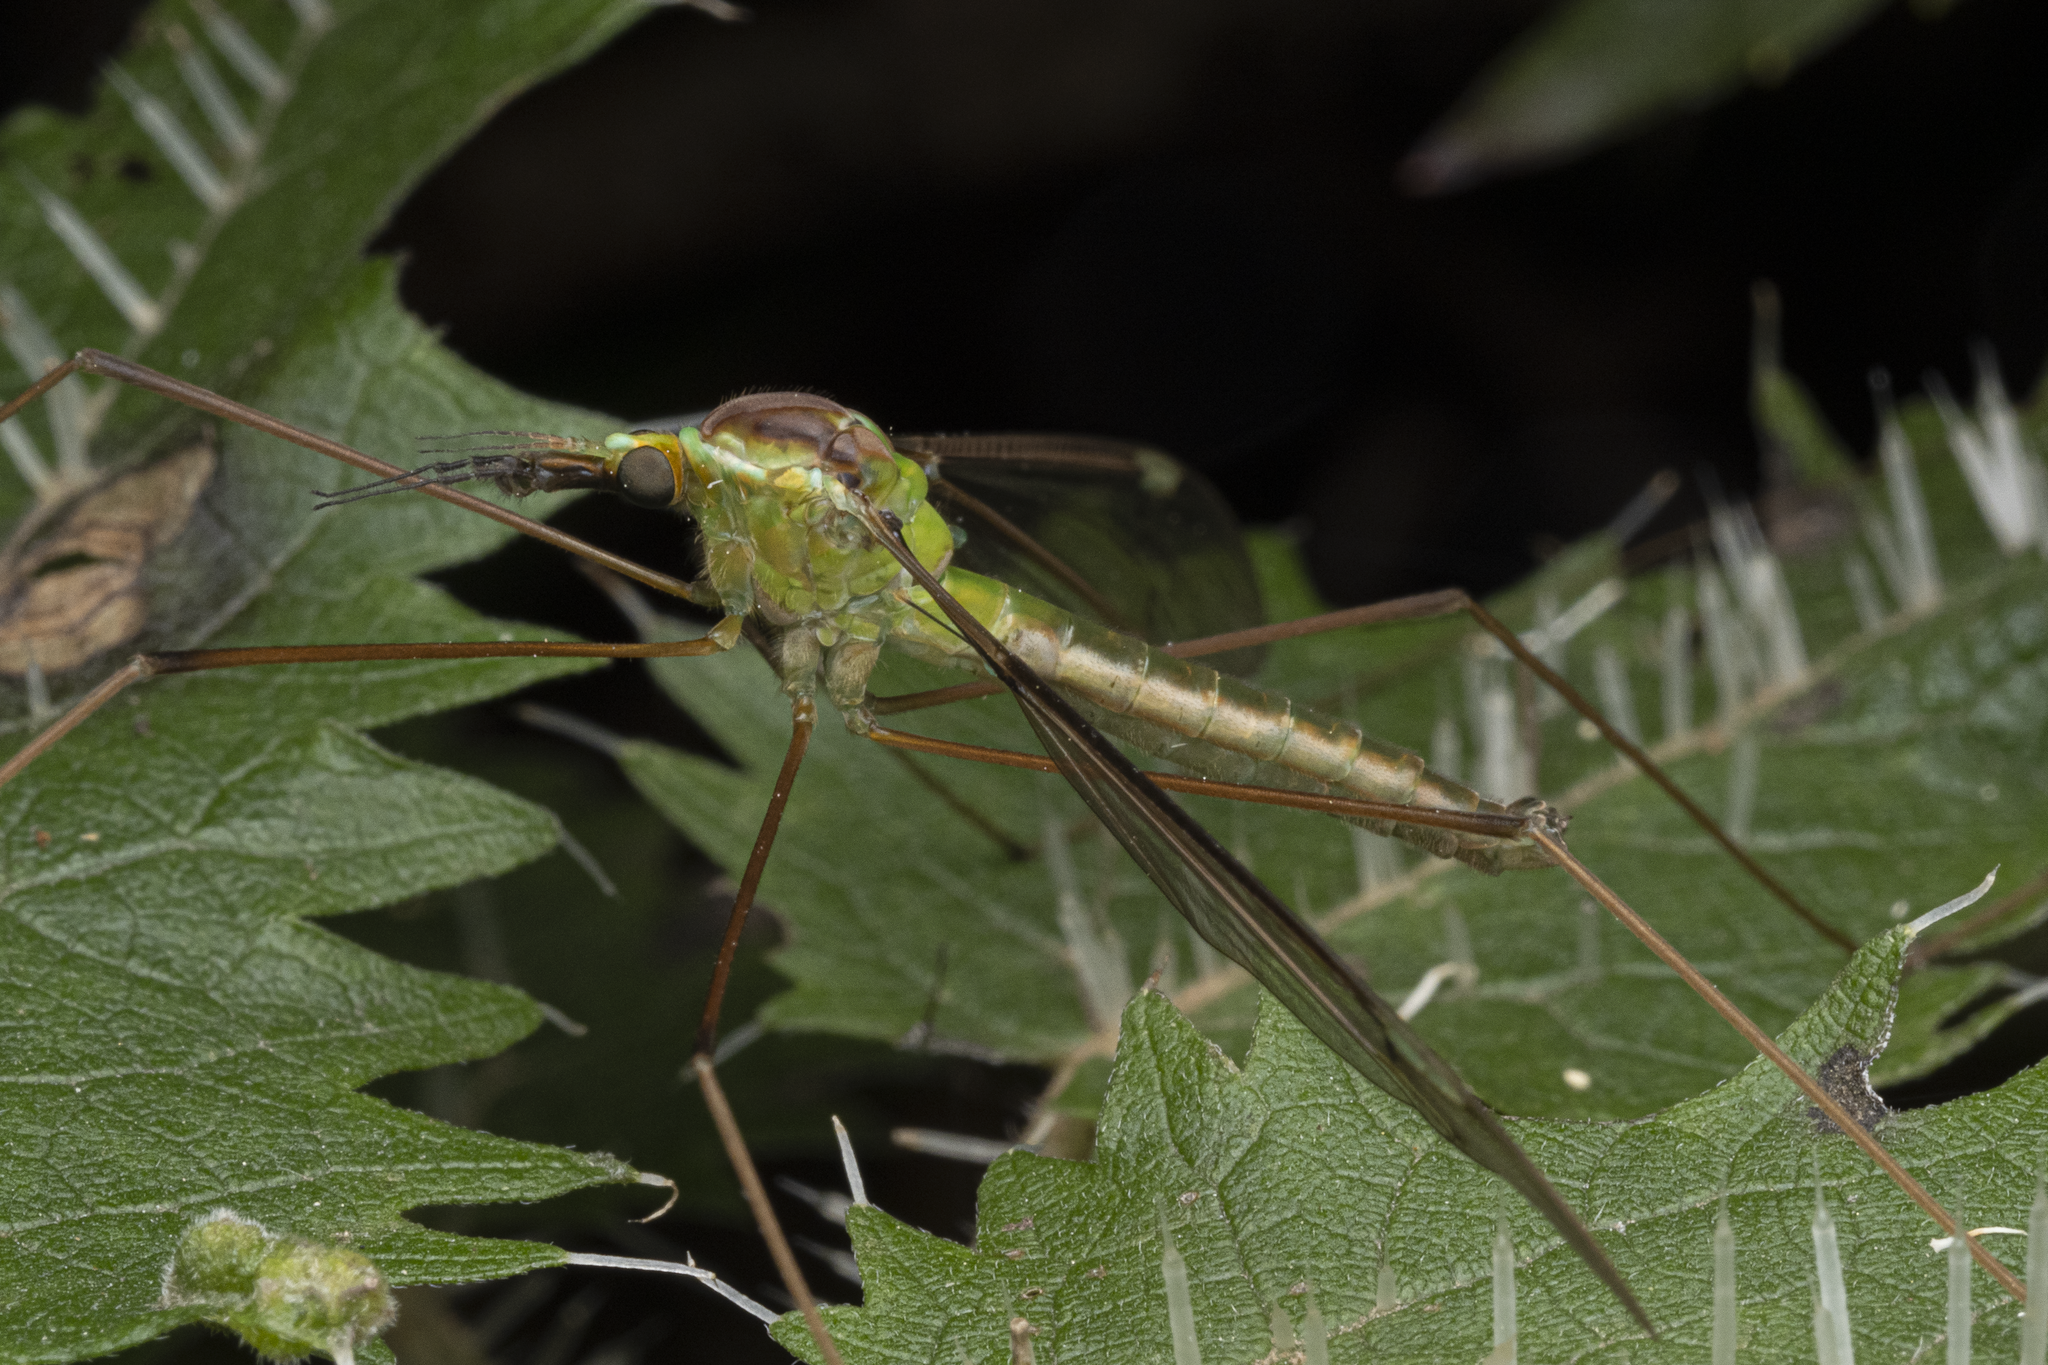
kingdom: Animalia
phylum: Arthropoda
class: Insecta
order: Diptera
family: Tipulidae
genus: Leptotarsus
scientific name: Leptotarsus albistigma
